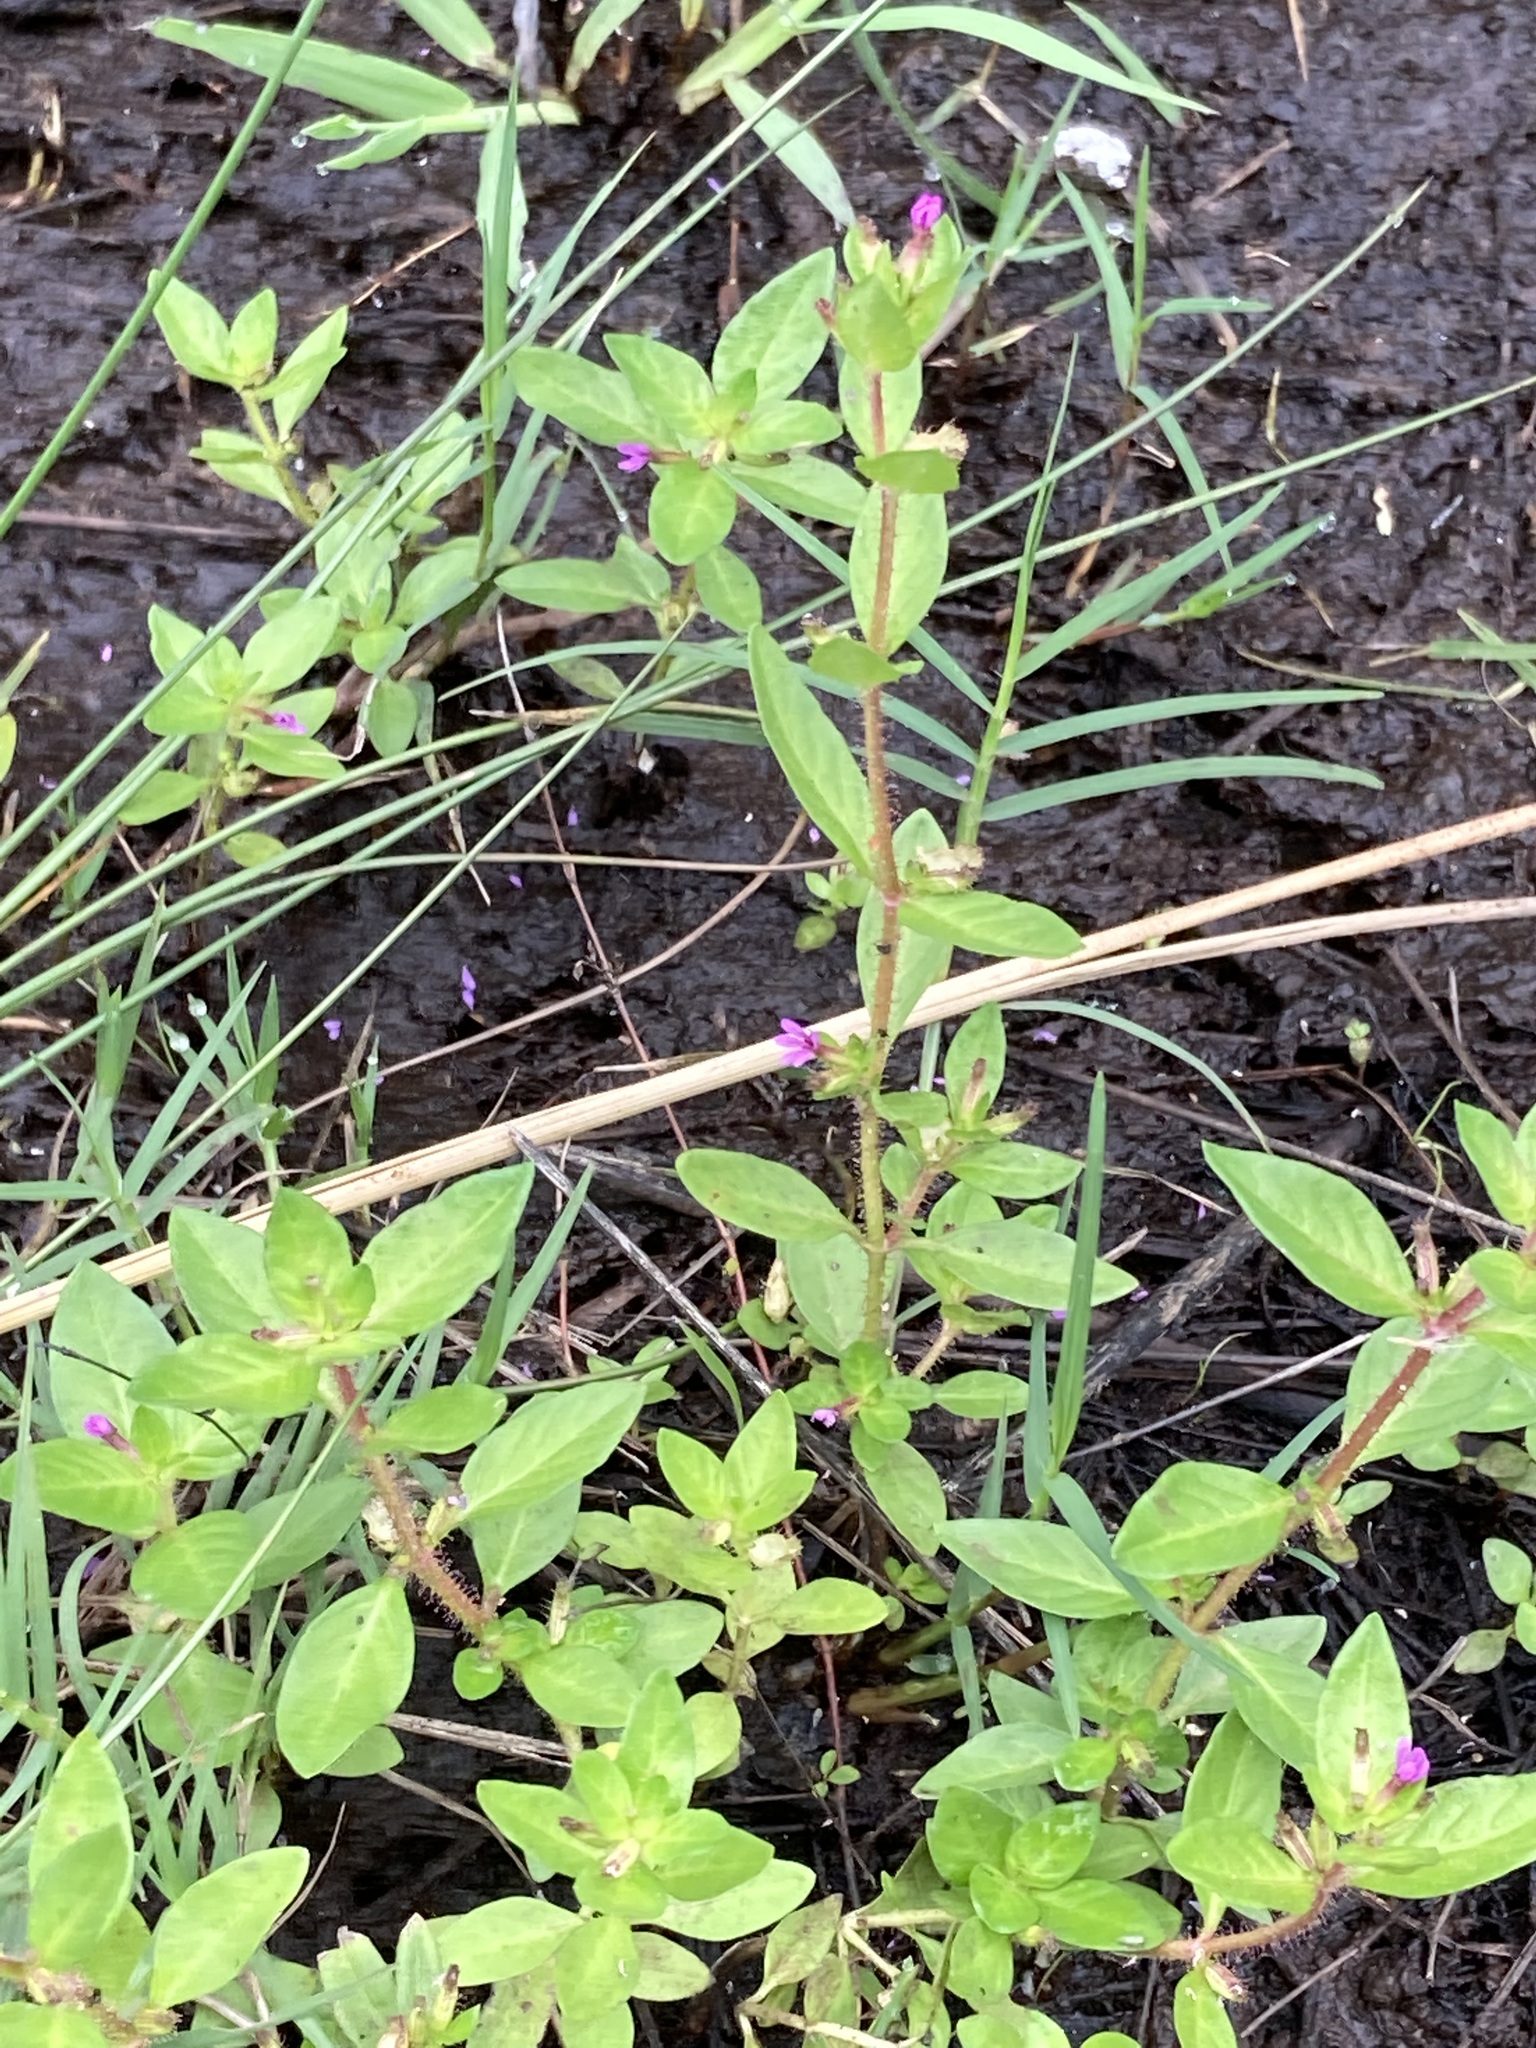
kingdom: Plantae
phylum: Tracheophyta
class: Magnoliopsida
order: Myrtales
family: Lythraceae
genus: Cuphea
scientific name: Cuphea carthagenensis
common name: Colombian waxweed
